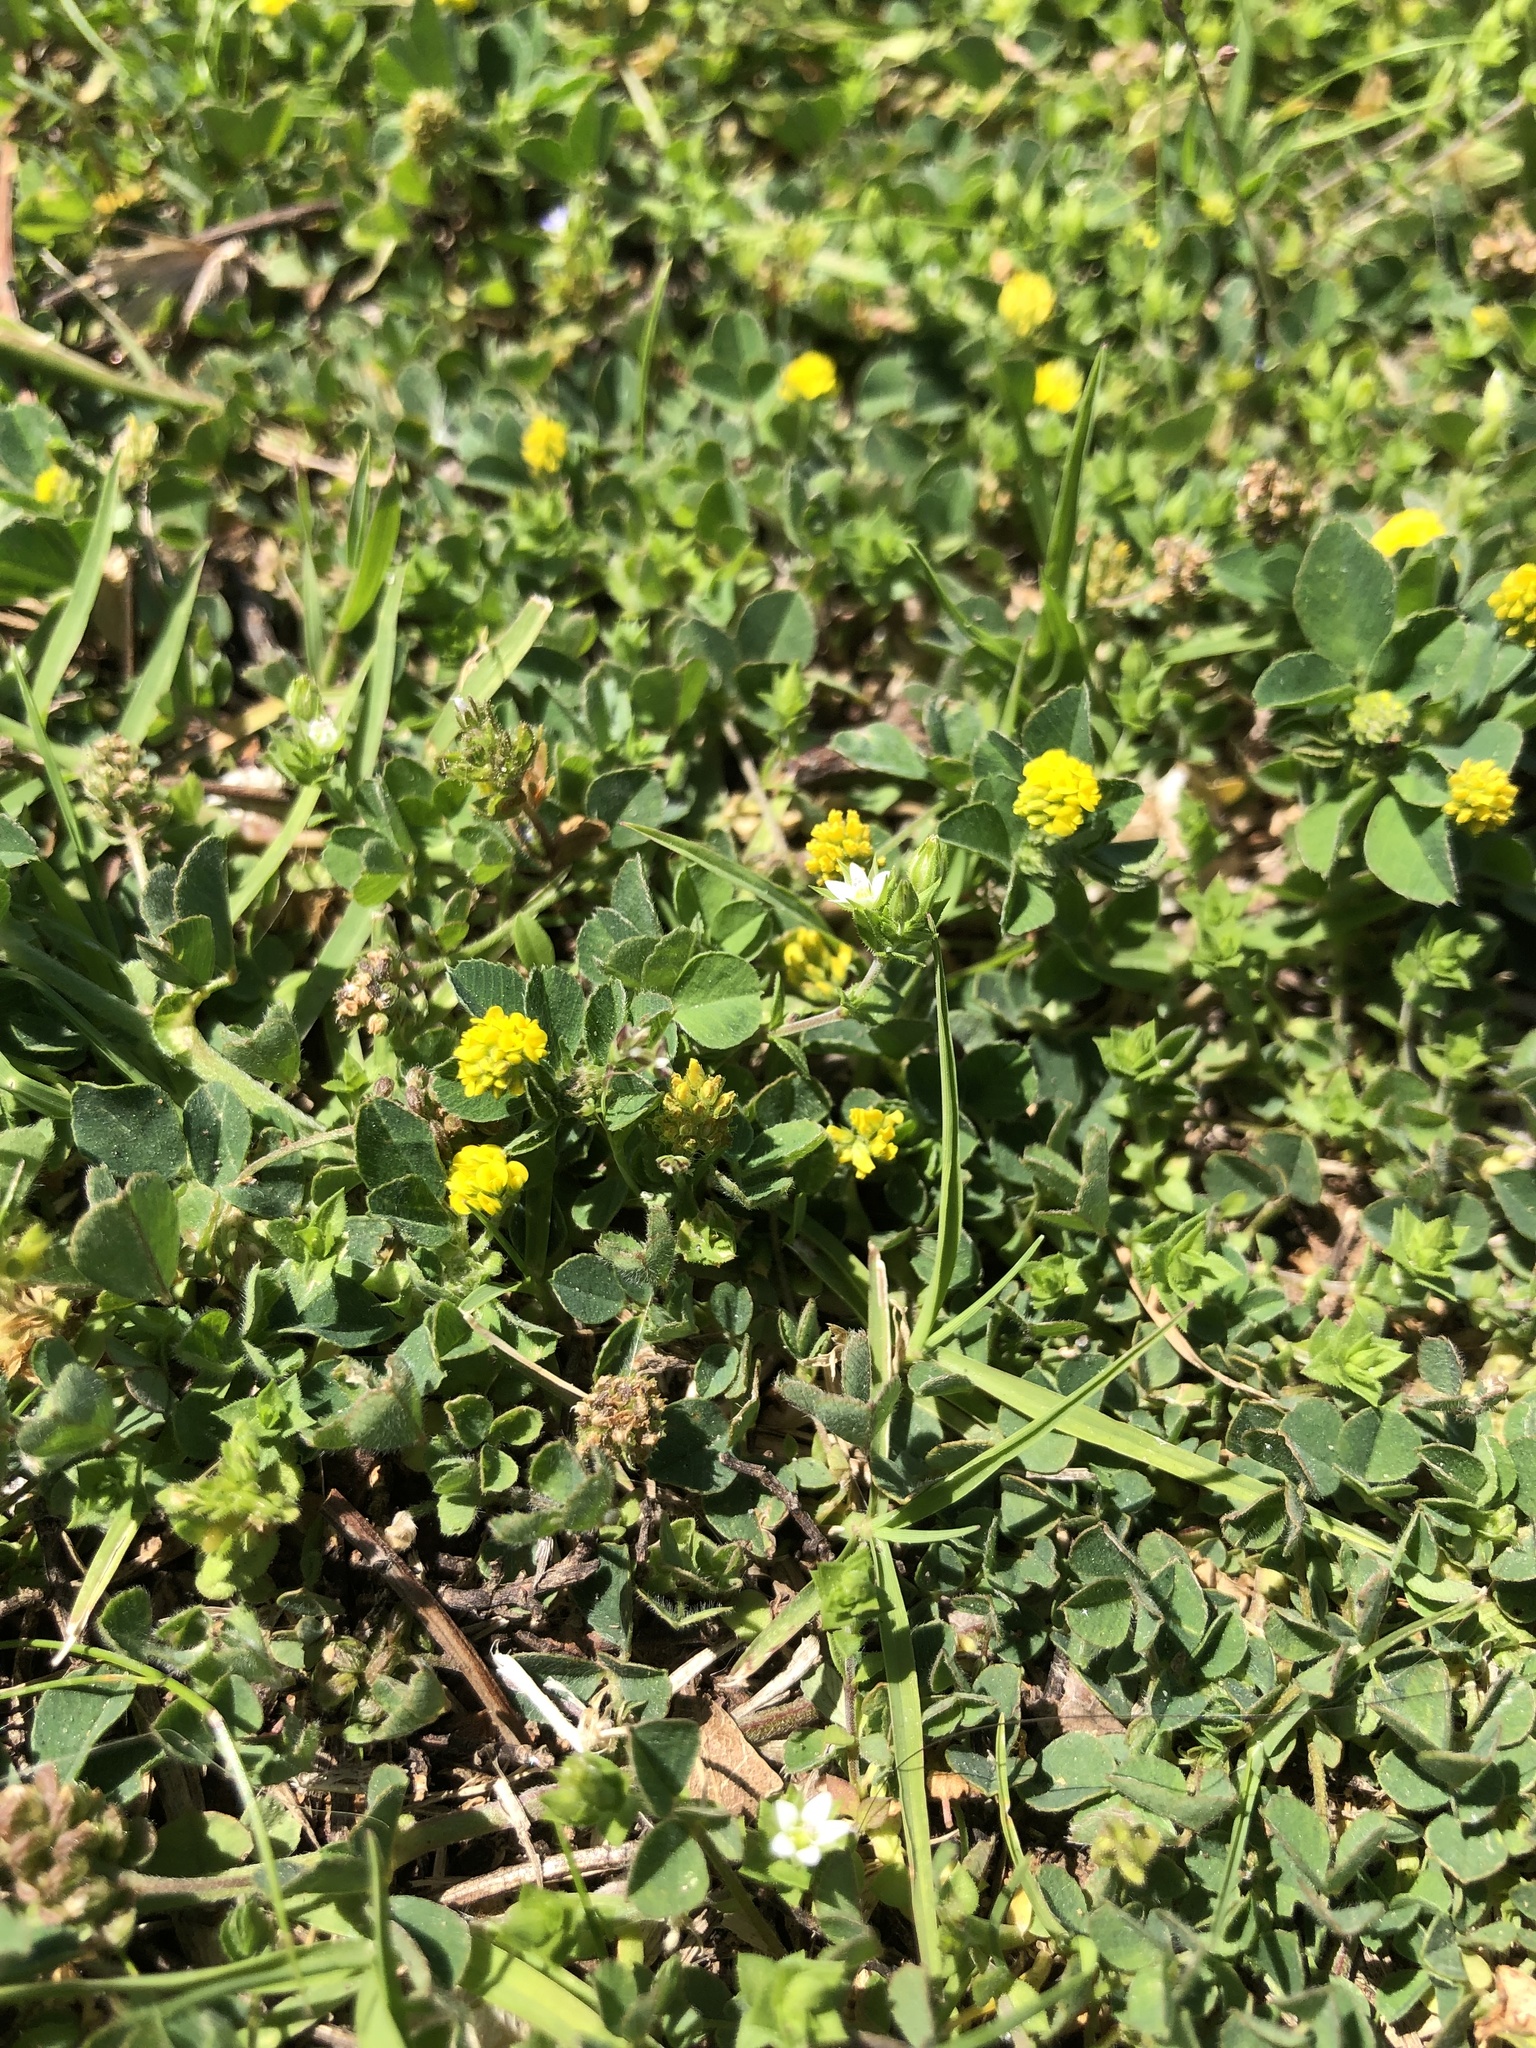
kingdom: Plantae
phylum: Tracheophyta
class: Magnoliopsida
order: Fabales
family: Fabaceae
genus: Medicago
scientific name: Medicago lupulina
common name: Black medick
